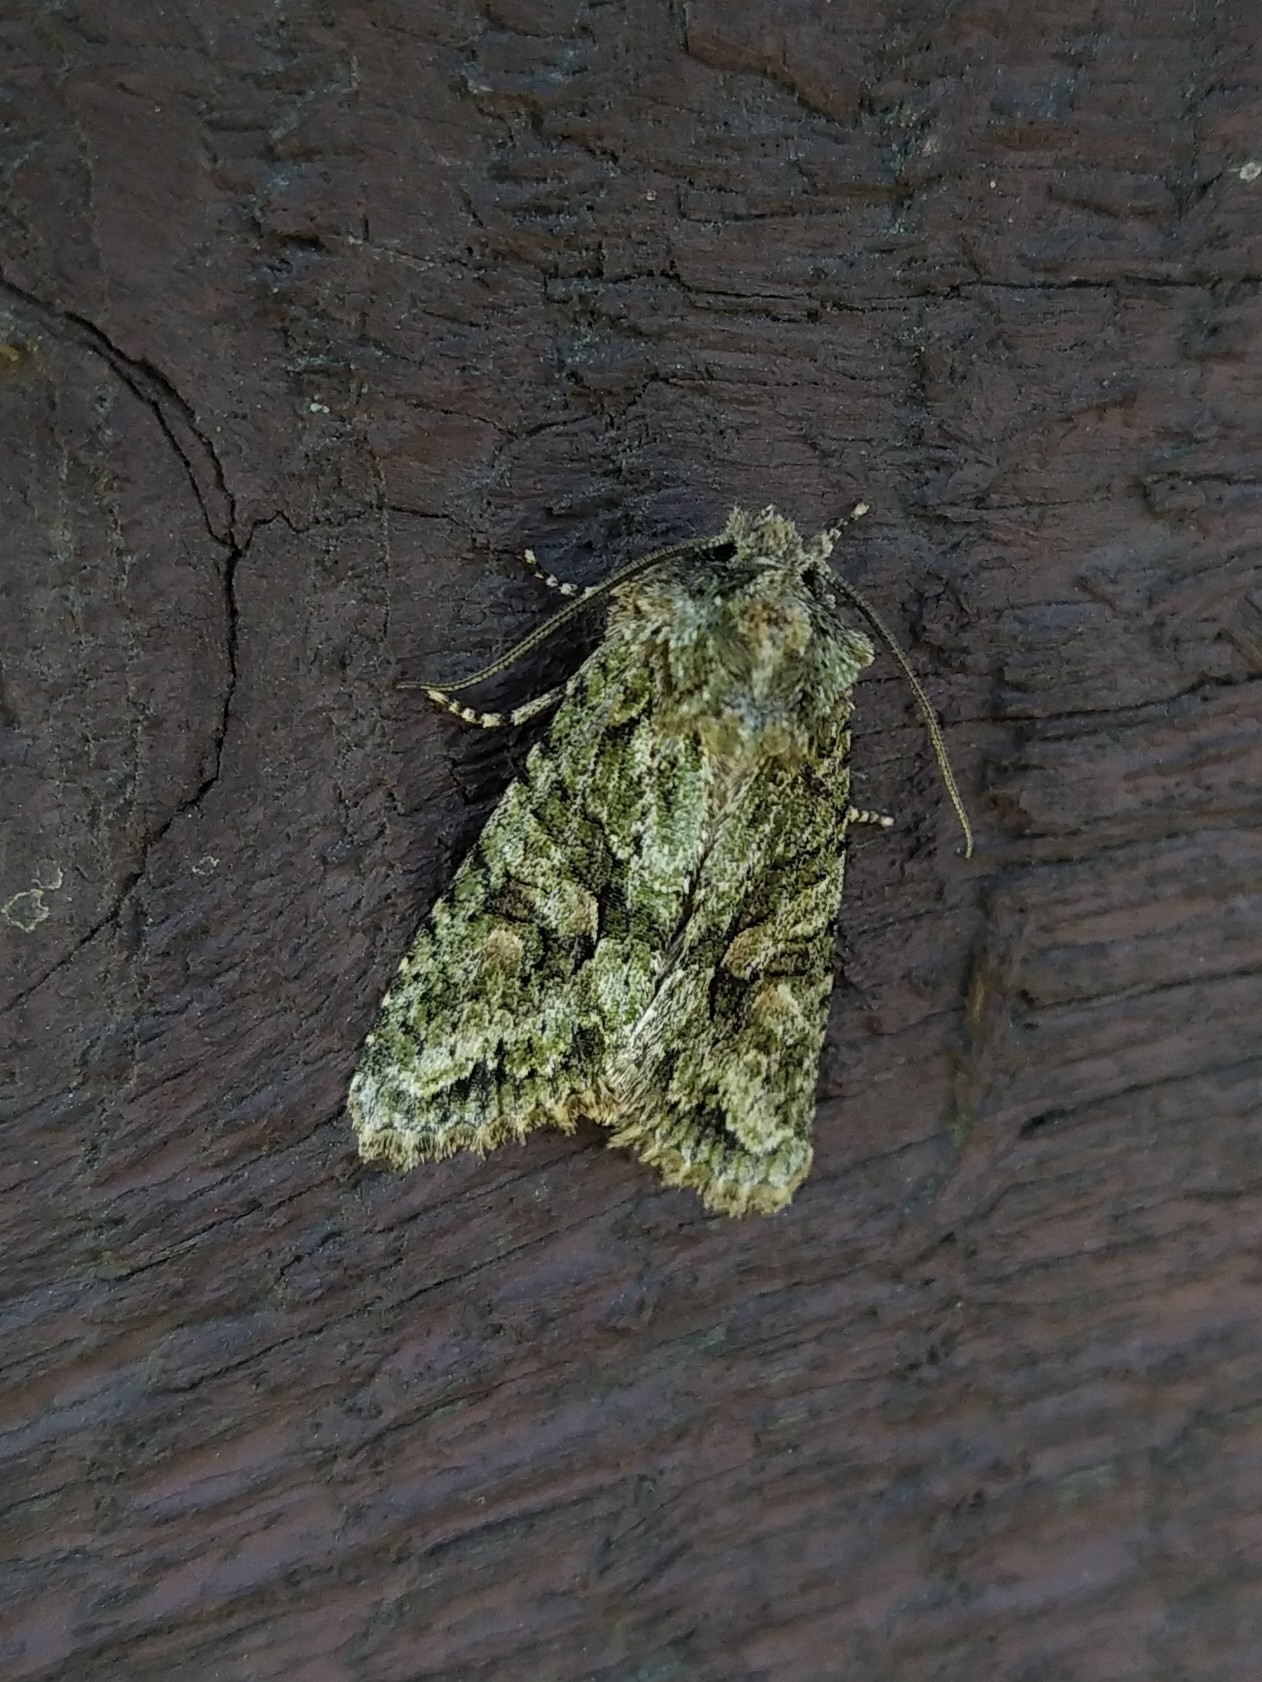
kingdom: Animalia
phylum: Arthropoda
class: Insecta
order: Lepidoptera
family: Noctuidae
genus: Dryobotodes
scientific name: Dryobotodes eremita
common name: Brindled green
